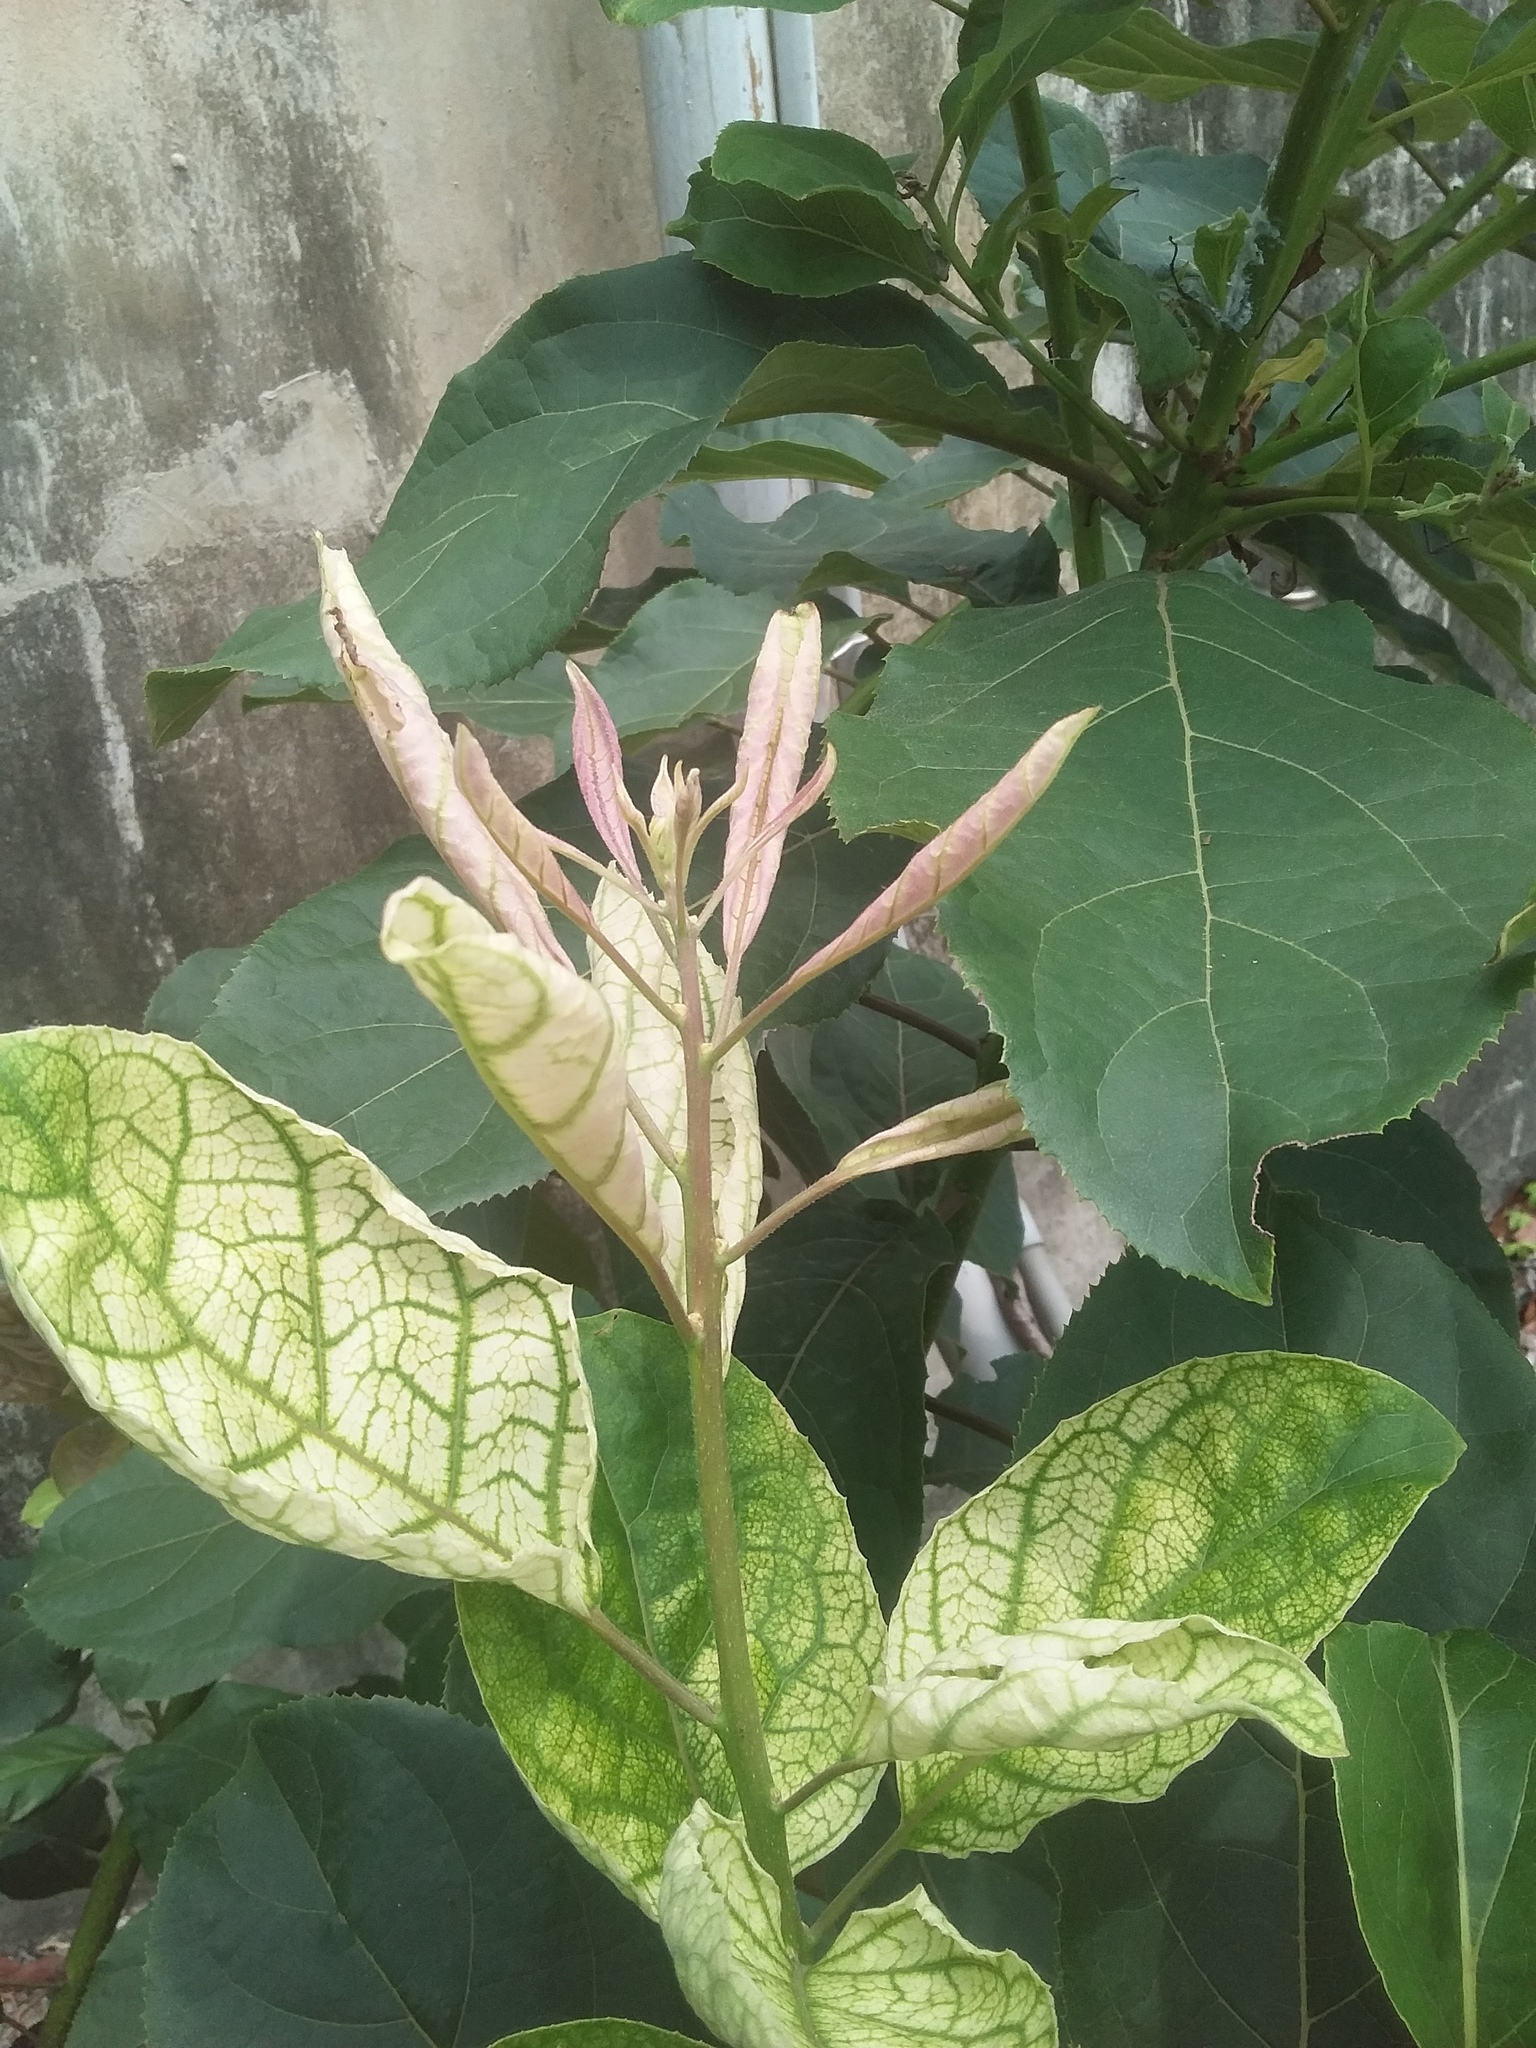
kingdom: Plantae
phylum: Tracheophyta
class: Magnoliopsida
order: Boraginales
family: Ehretiaceae
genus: Ehretia
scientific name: Ehretia acuminata
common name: Kodo wood
